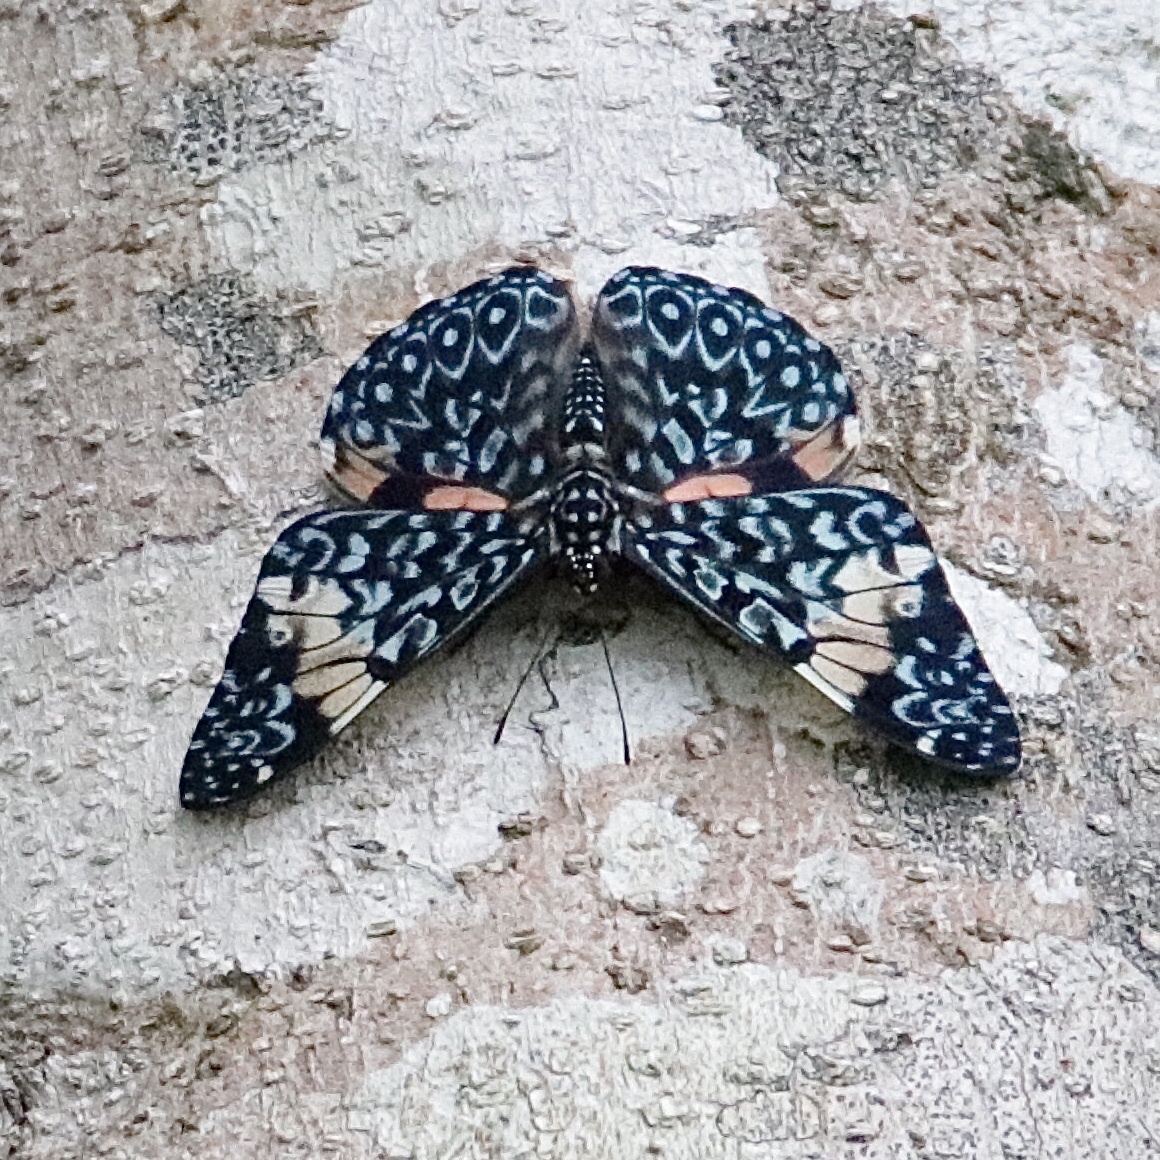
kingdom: Animalia
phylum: Arthropoda
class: Insecta
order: Lepidoptera
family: Nymphalidae
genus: Hamadryas
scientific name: Hamadryas amphinome
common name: Red cracker
